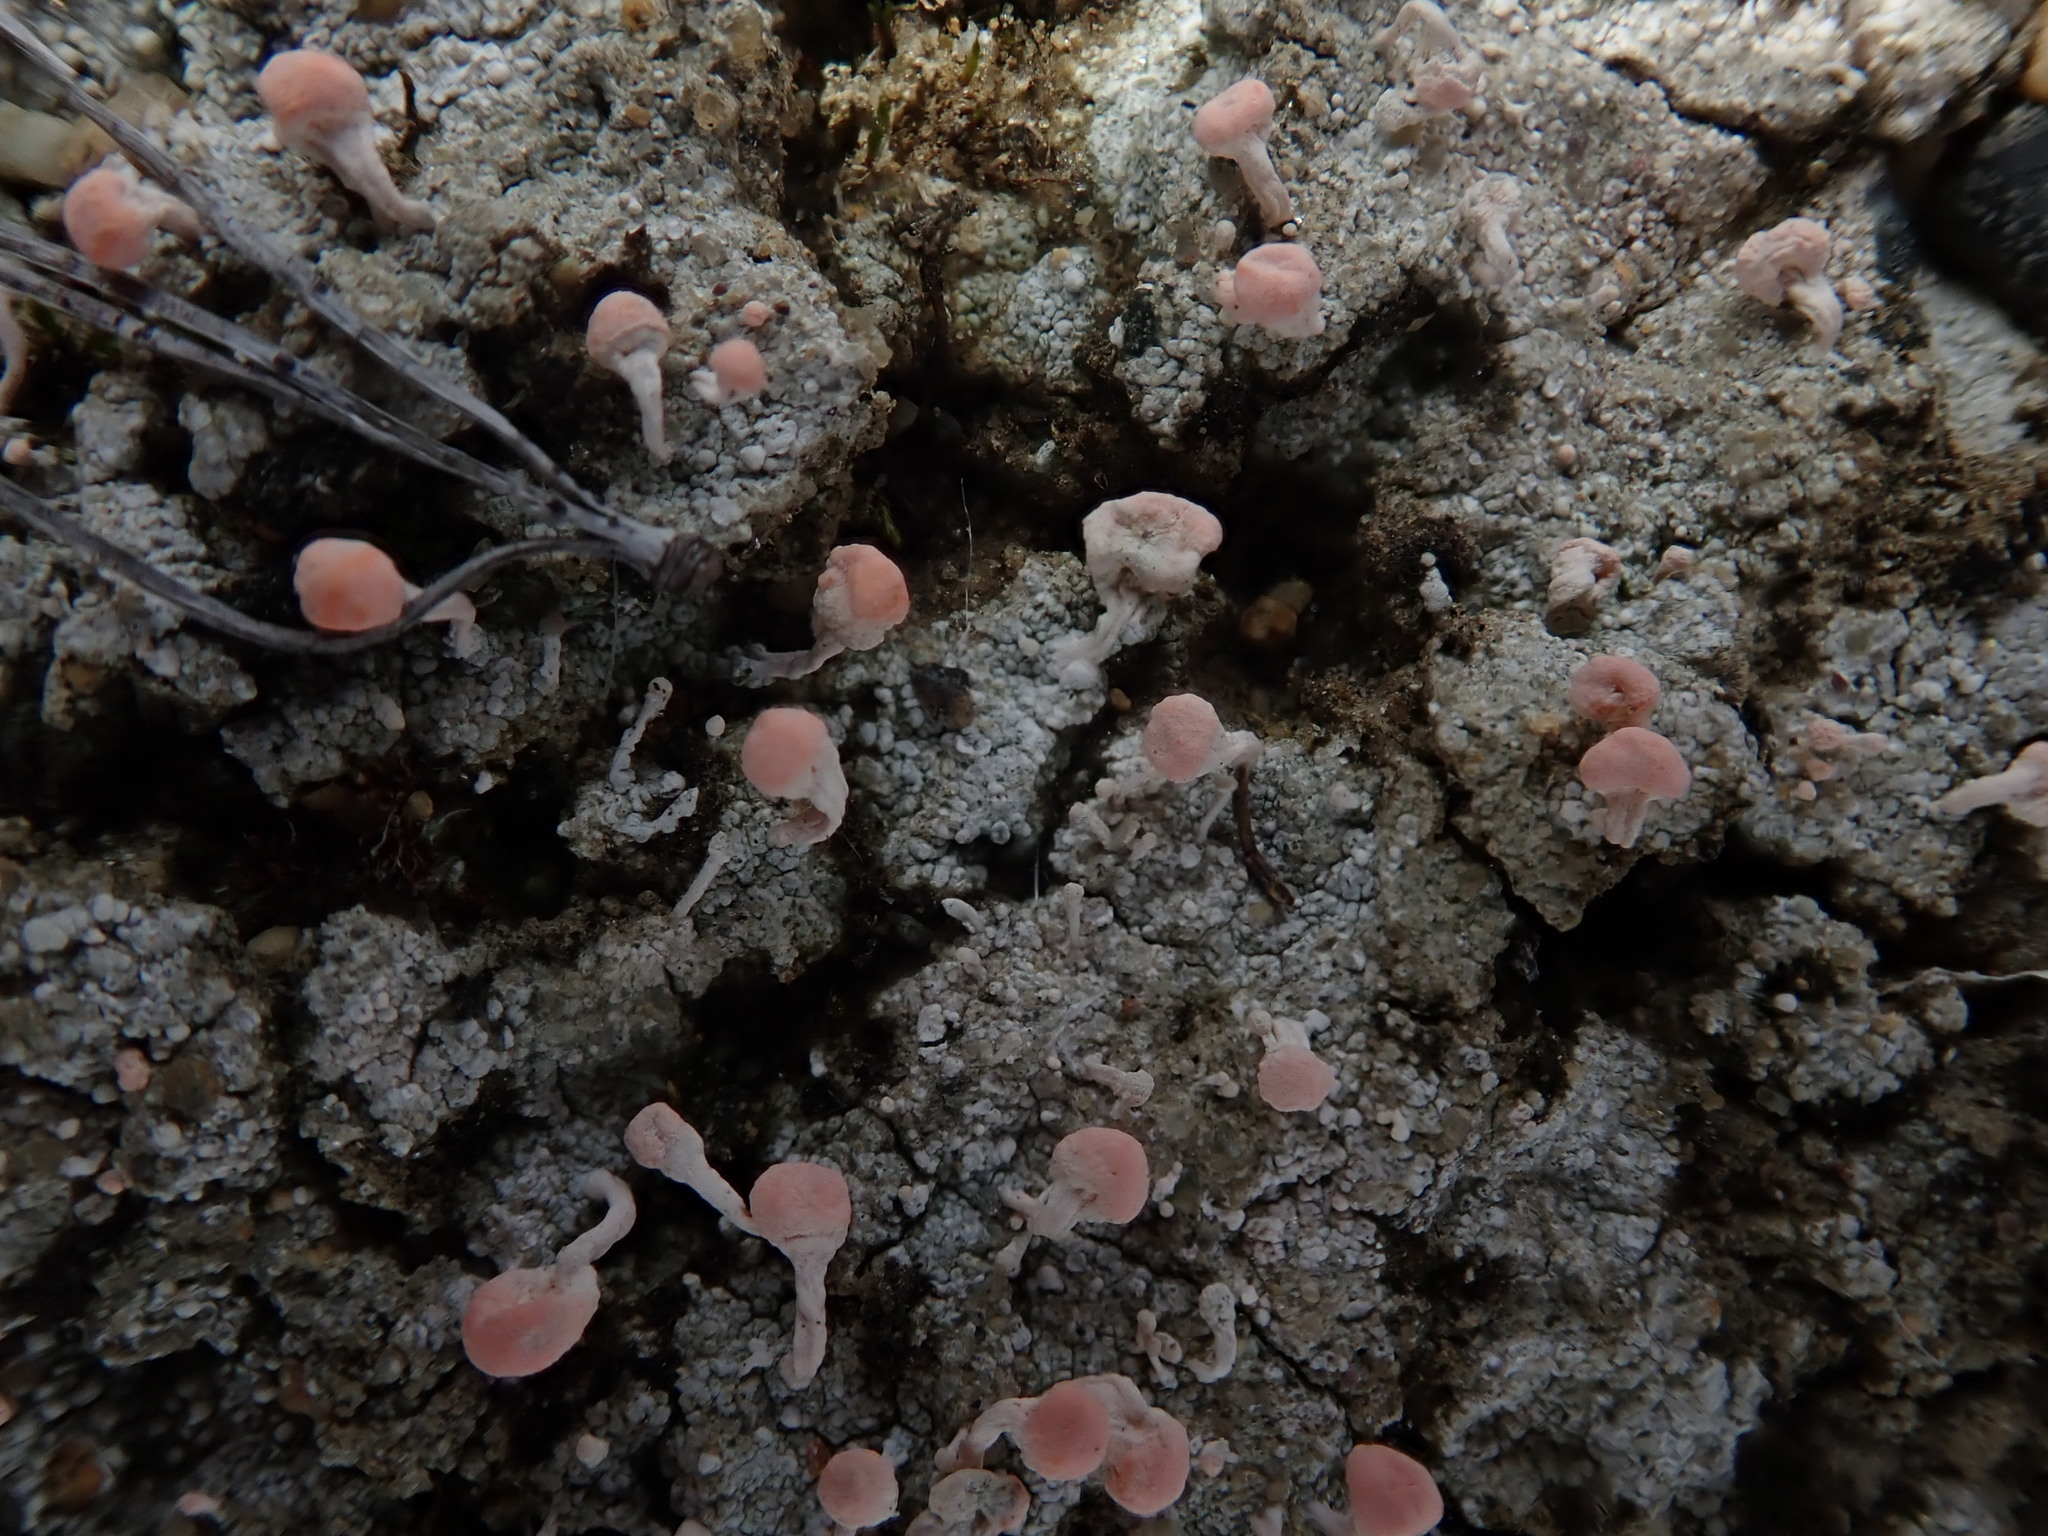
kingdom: Fungi
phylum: Ascomycota
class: Lecanoromycetes
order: Pertusariales
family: Icmadophilaceae
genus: Dibaeis
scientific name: Dibaeis baeomyces
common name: Pink earth lichen
